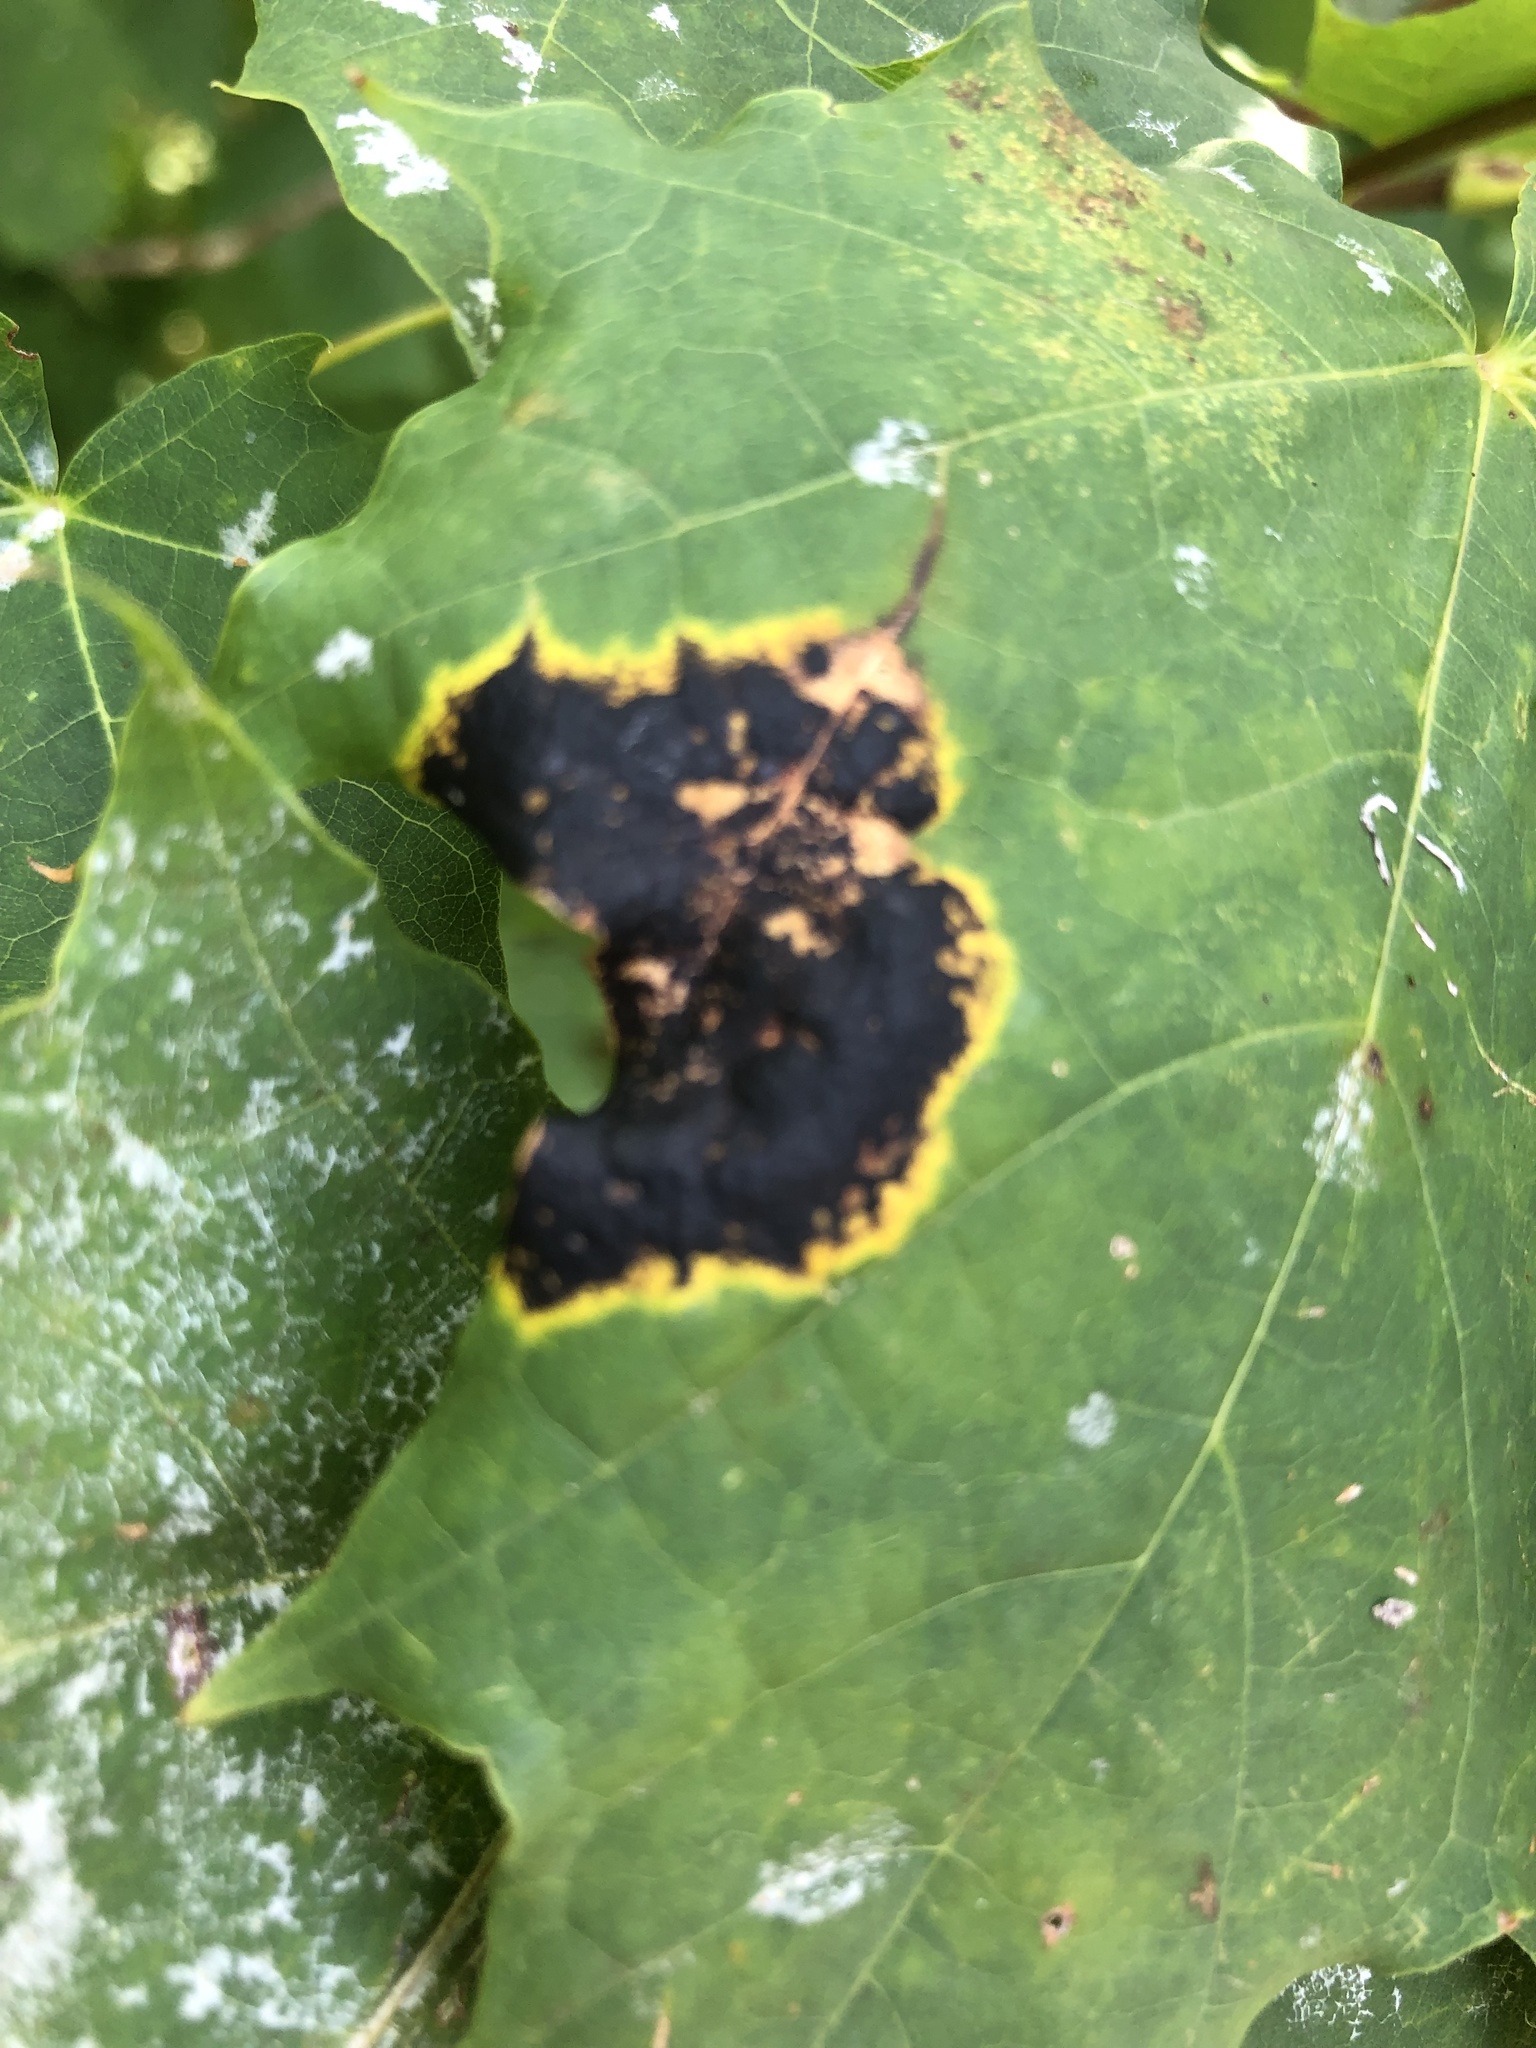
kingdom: Fungi
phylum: Ascomycota
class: Leotiomycetes
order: Rhytismatales
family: Rhytismataceae
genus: Rhytisma
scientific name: Rhytisma acerinum
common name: European tar spot
